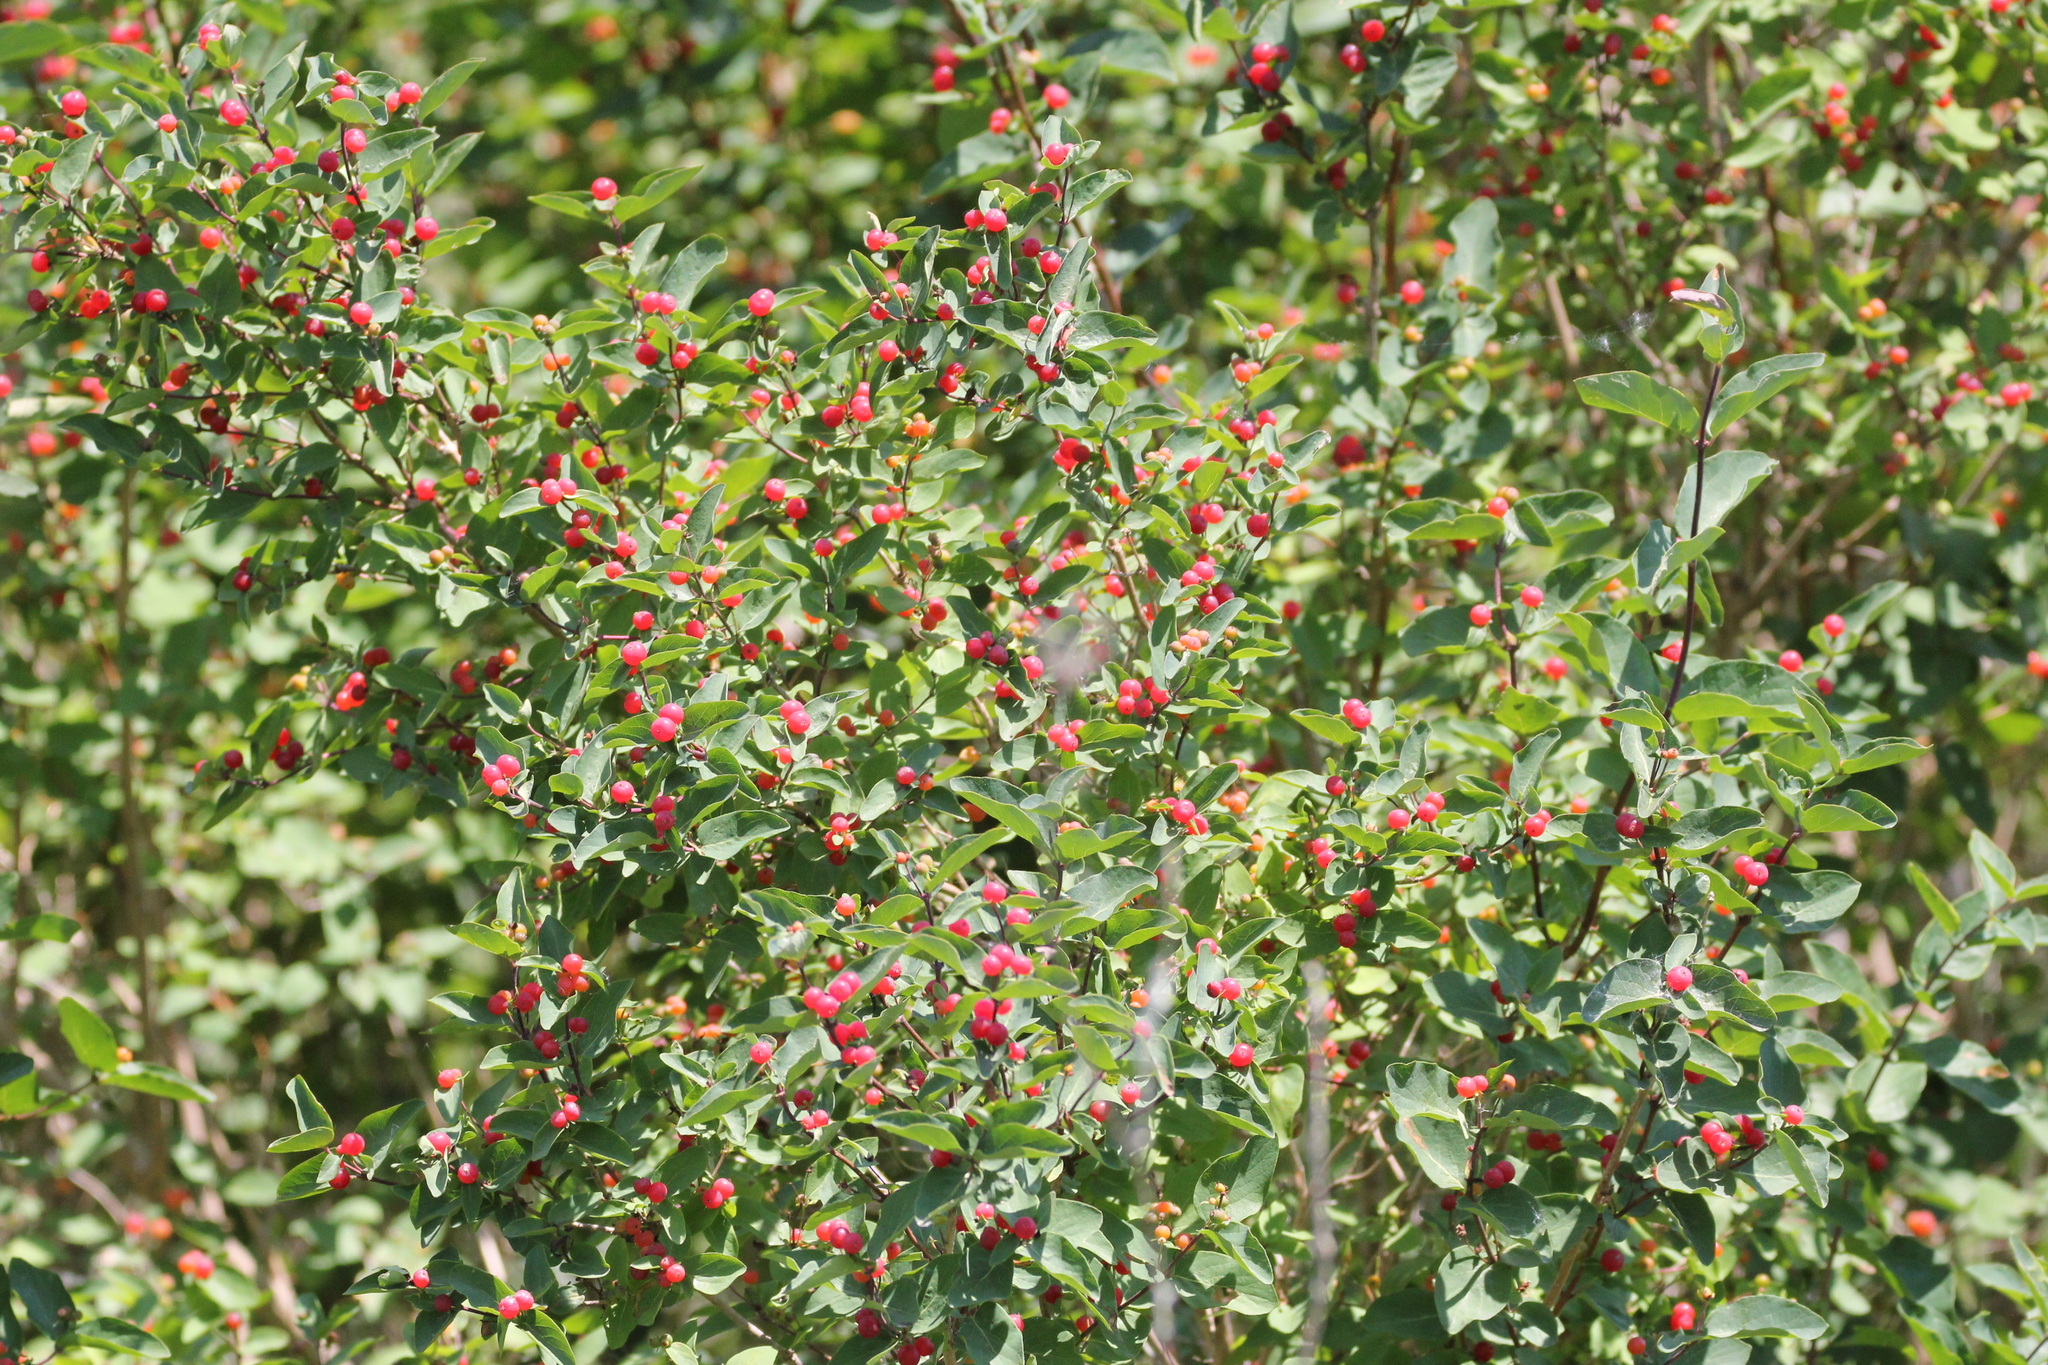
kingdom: Plantae
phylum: Tracheophyta
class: Magnoliopsida
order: Dipsacales
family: Caprifoliaceae
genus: Lonicera
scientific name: Lonicera tatarica
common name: Tatarian honeysuckle
